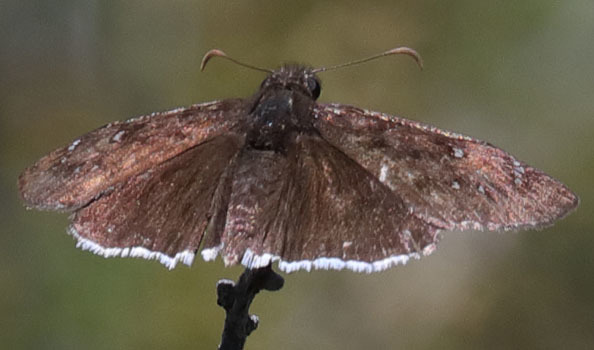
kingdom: Animalia
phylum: Arthropoda
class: Insecta
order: Lepidoptera
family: Hesperiidae
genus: Erynnis
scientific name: Erynnis tristis
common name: Mournful duskywing
